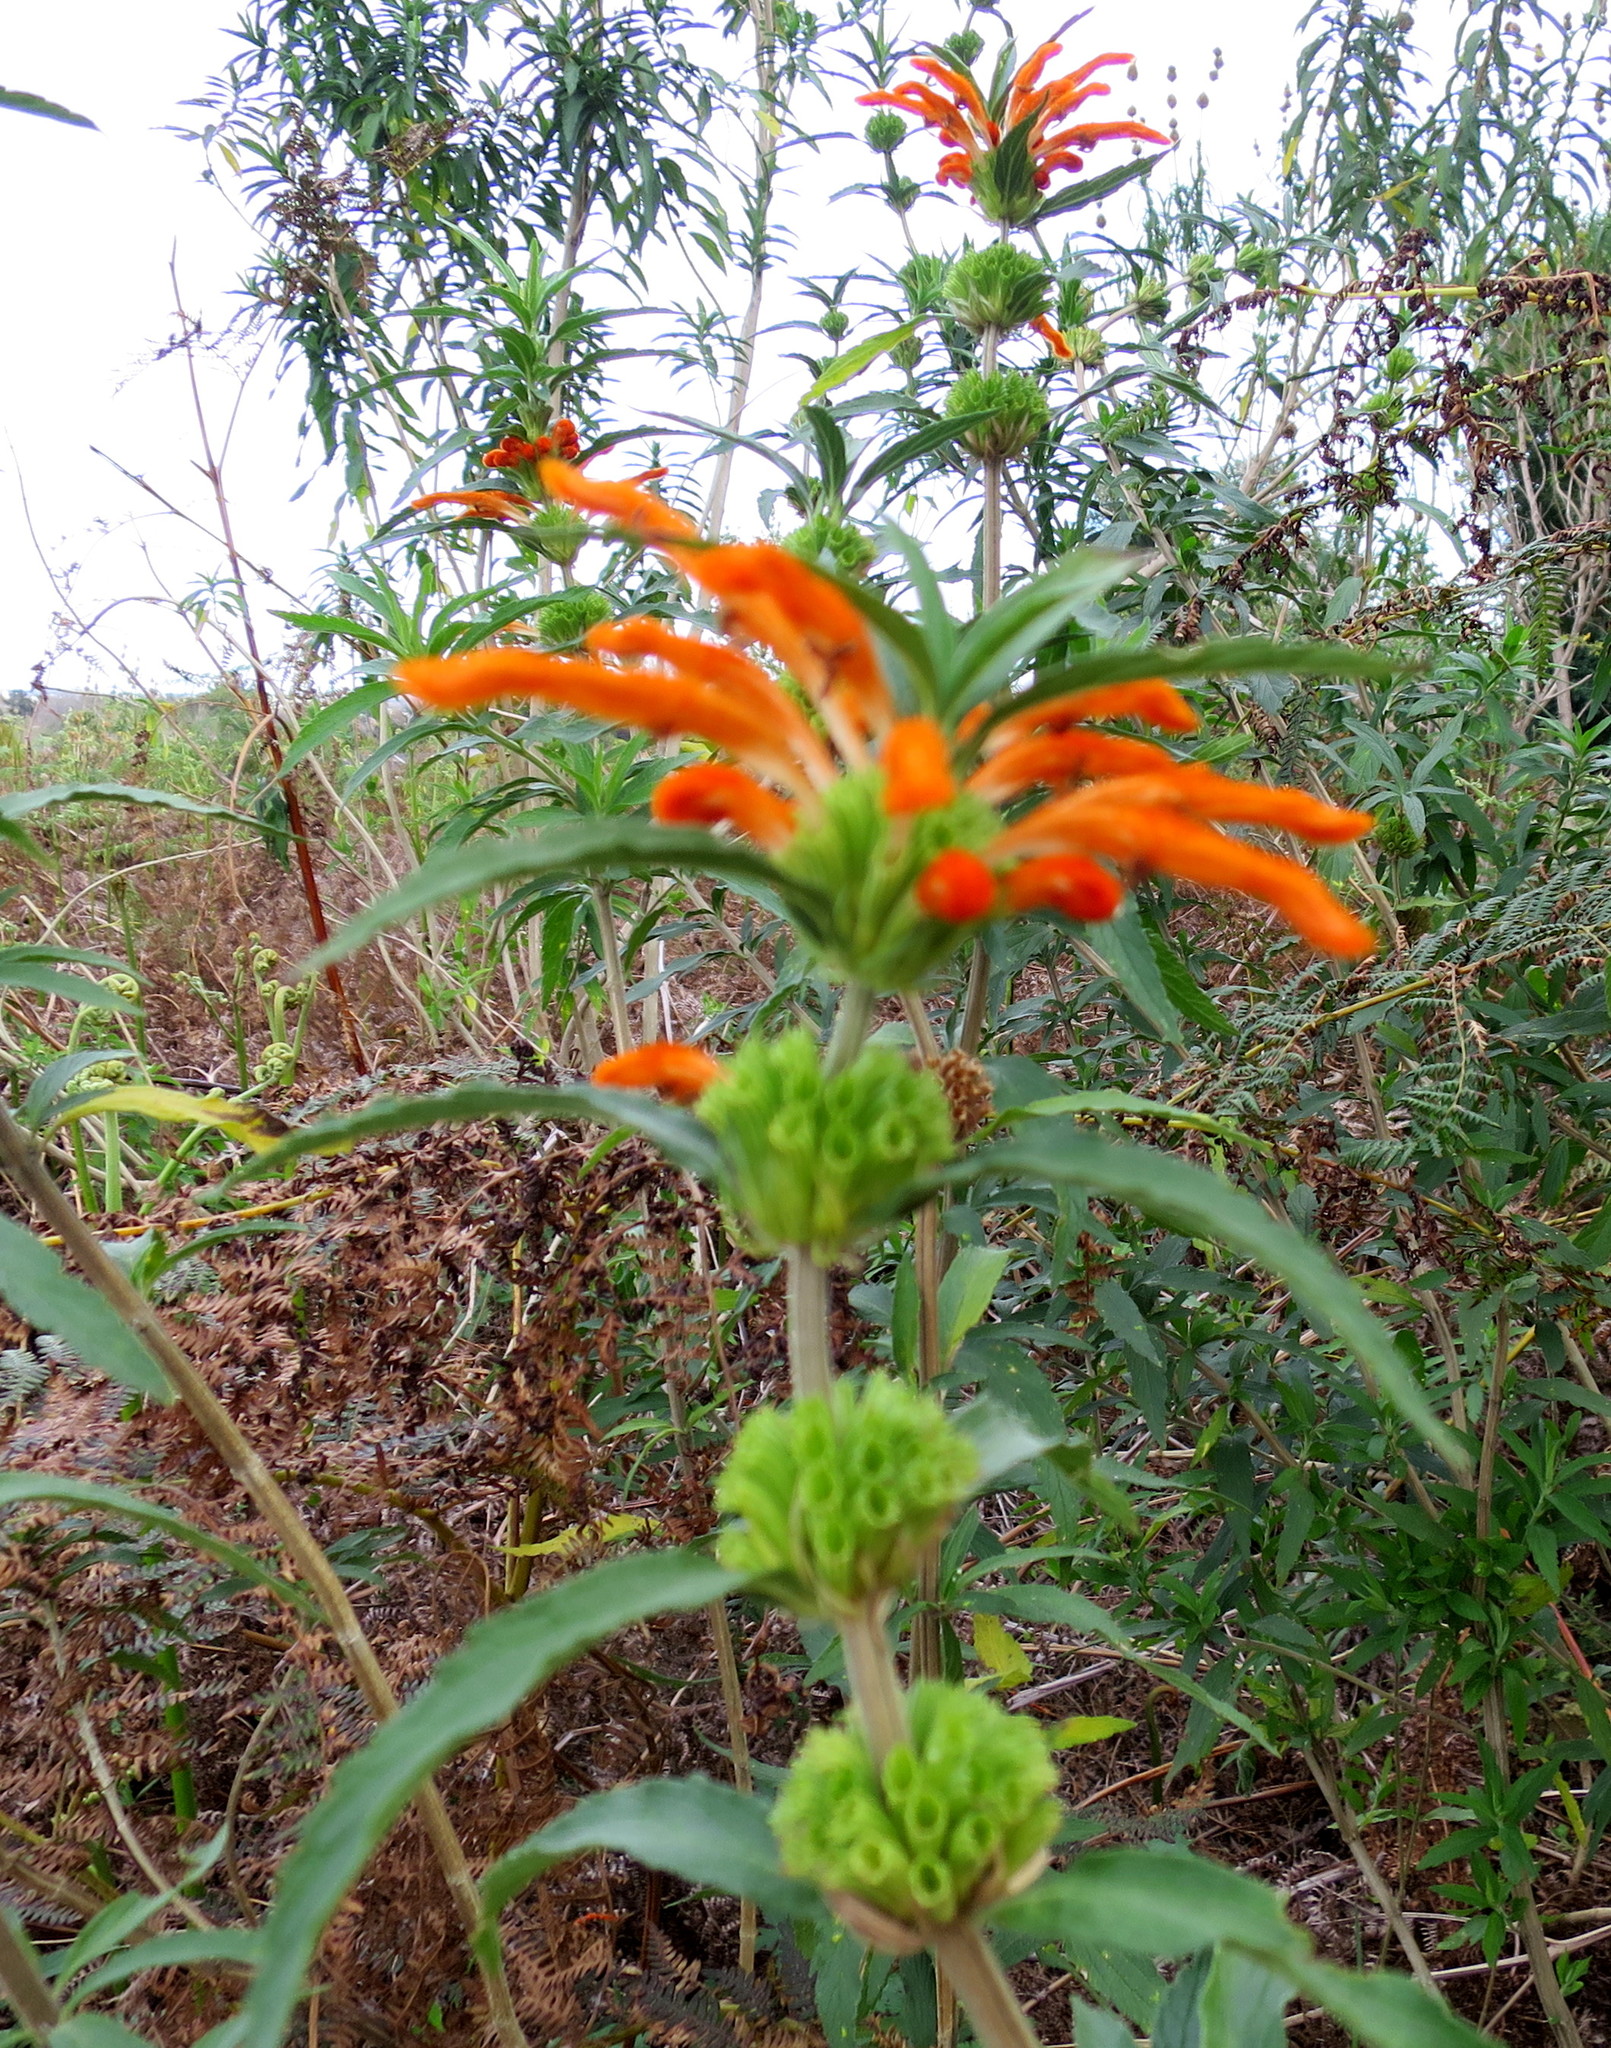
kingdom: Plantae
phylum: Tracheophyta
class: Magnoliopsida
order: Lamiales
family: Lamiaceae
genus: Leonotis
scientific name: Leonotis leonurus
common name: Lion's ear
